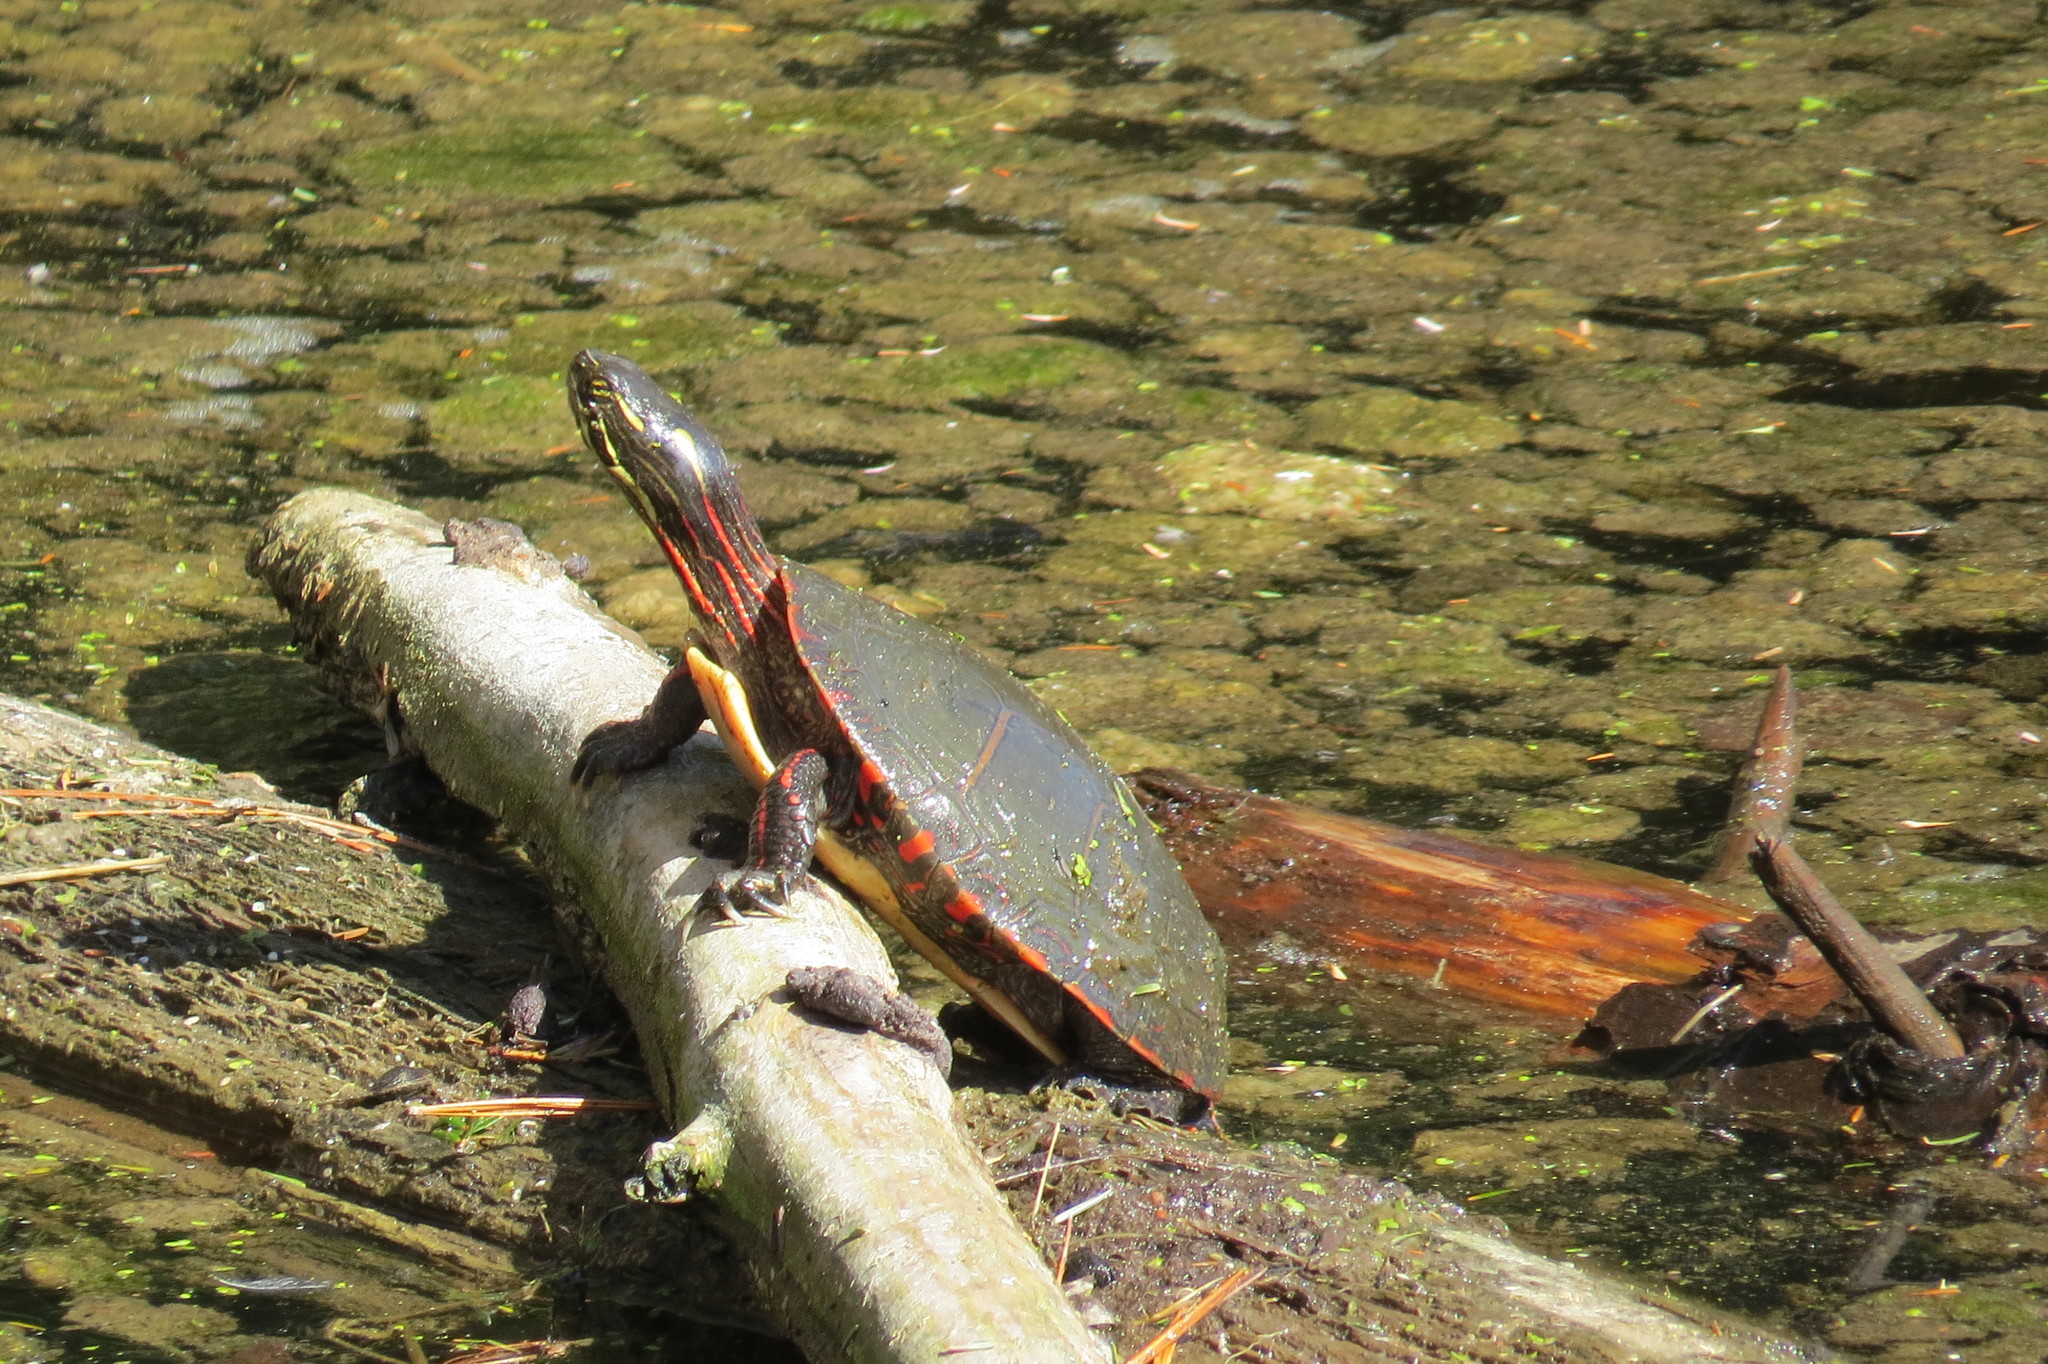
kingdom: Animalia
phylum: Chordata
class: Testudines
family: Emydidae
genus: Chrysemys
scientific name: Chrysemys picta
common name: Painted turtle
